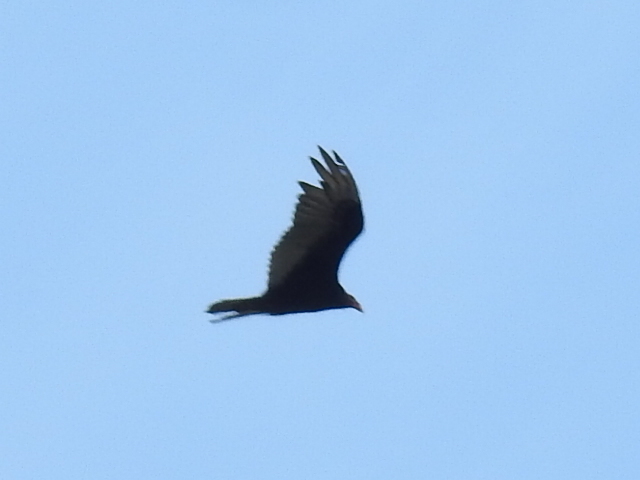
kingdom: Animalia
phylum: Chordata
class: Aves
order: Accipitriformes
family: Cathartidae
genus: Cathartes
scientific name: Cathartes aura
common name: Turkey vulture
